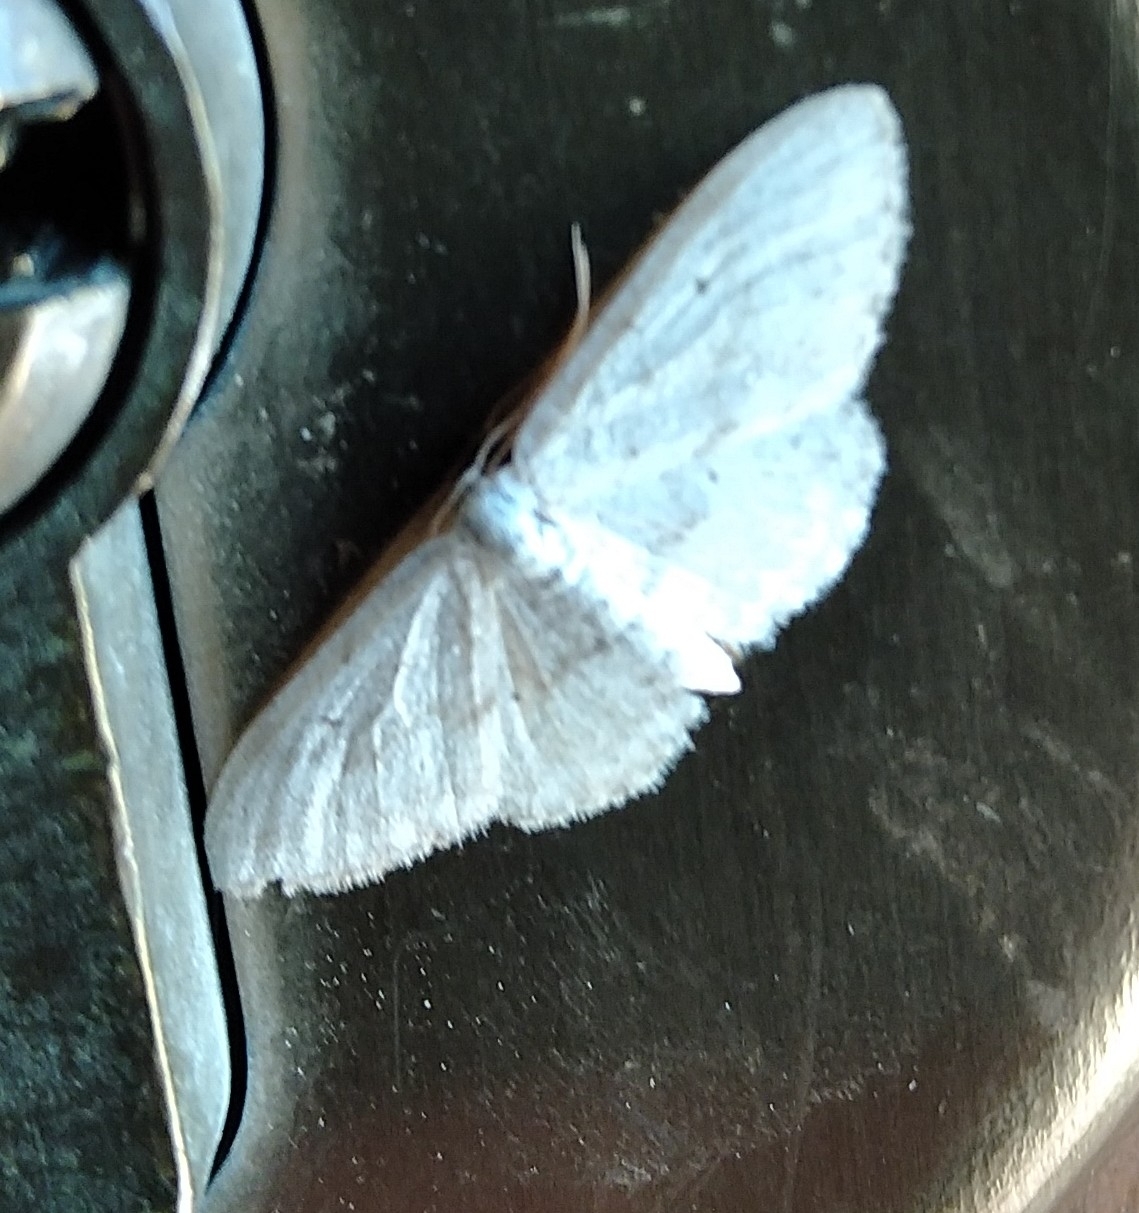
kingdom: Animalia
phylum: Arthropoda
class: Insecta
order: Lepidoptera
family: Geometridae
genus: Idaea
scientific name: Idaea seriata
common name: Small dusty wave
